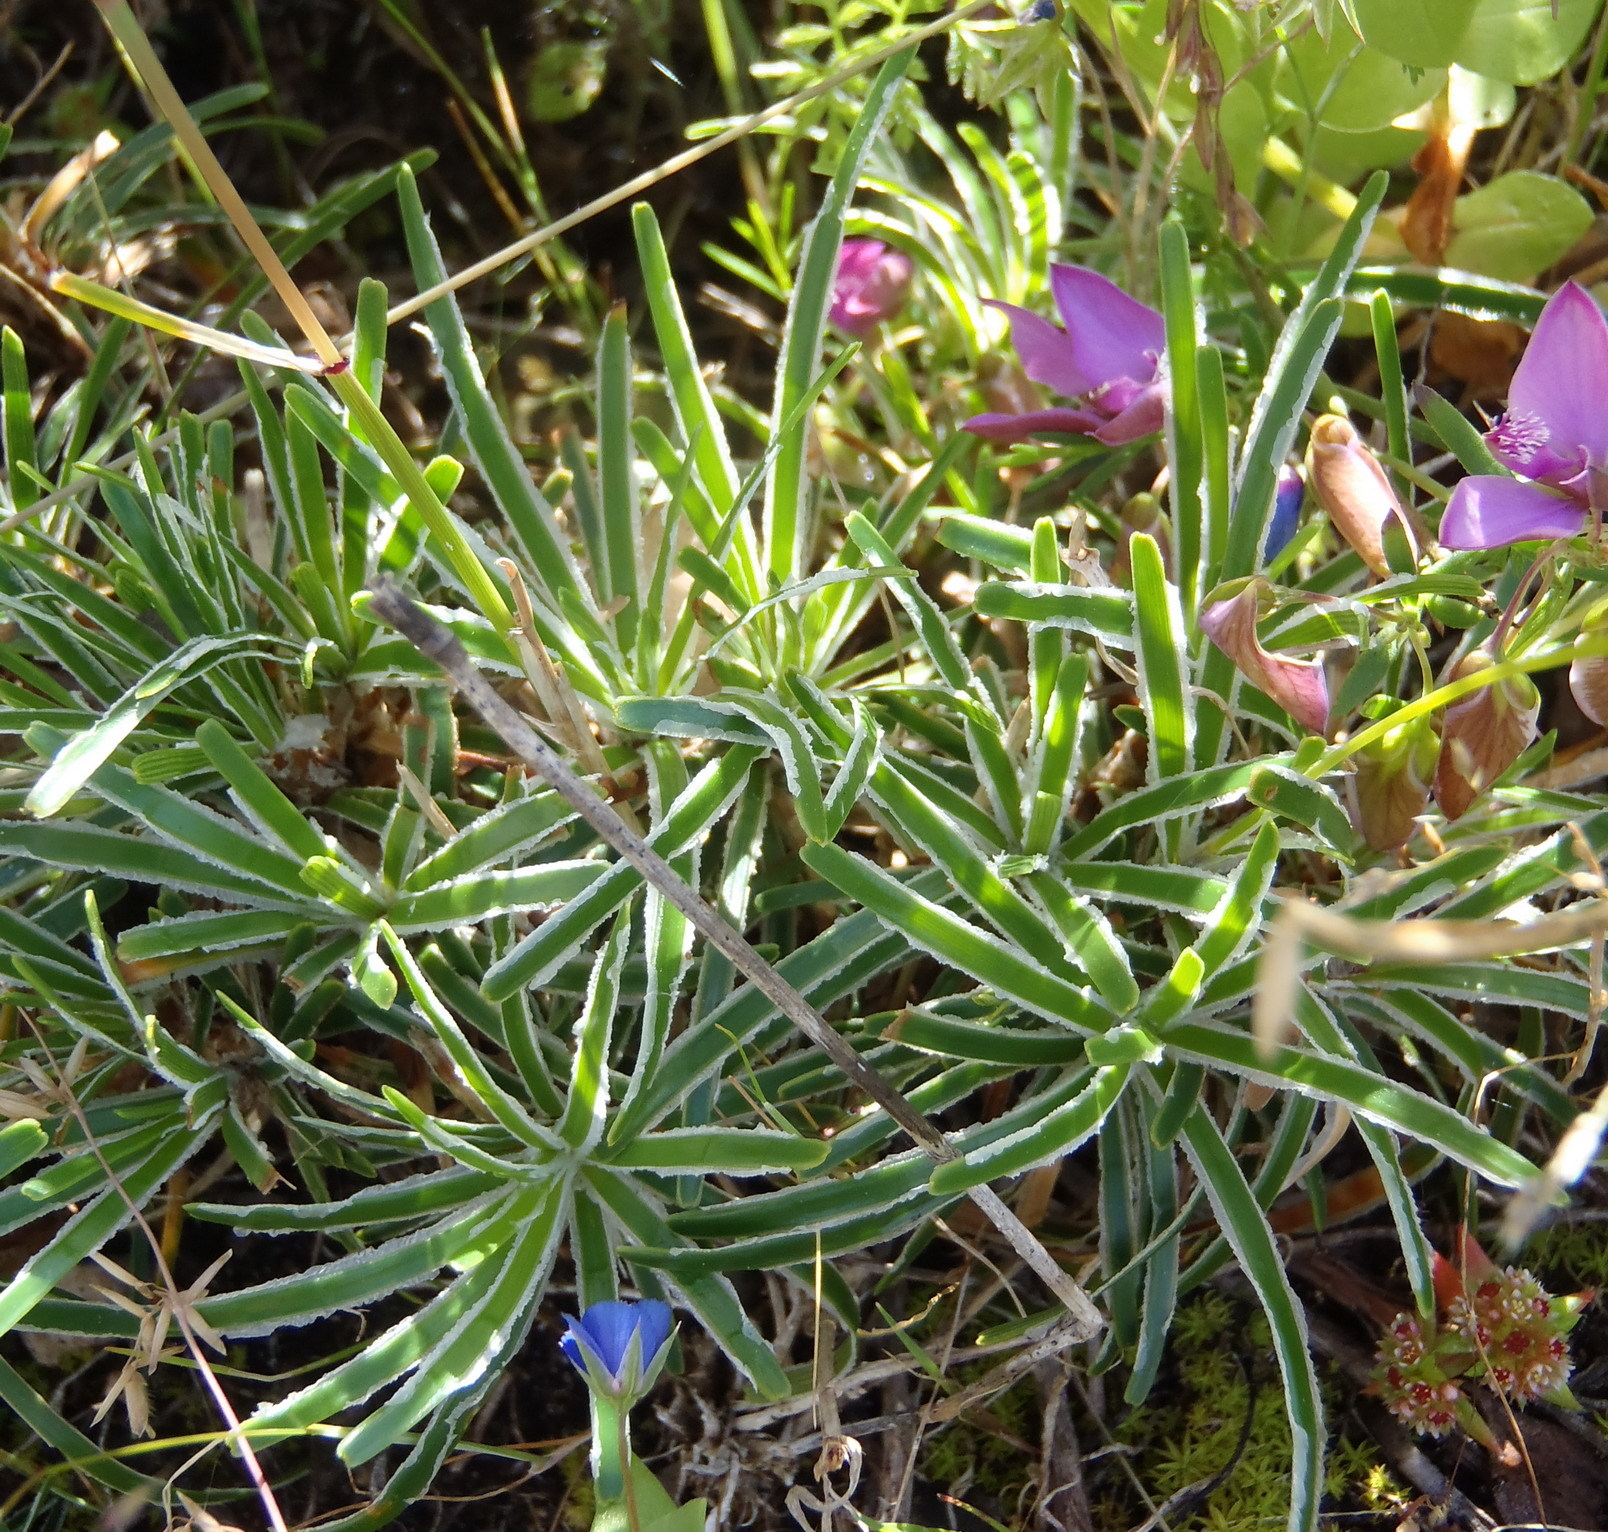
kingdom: Plantae
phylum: Tracheophyta
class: Liliopsida
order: Poales
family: Cyperaceae
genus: Ficinia
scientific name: Ficinia truncata
